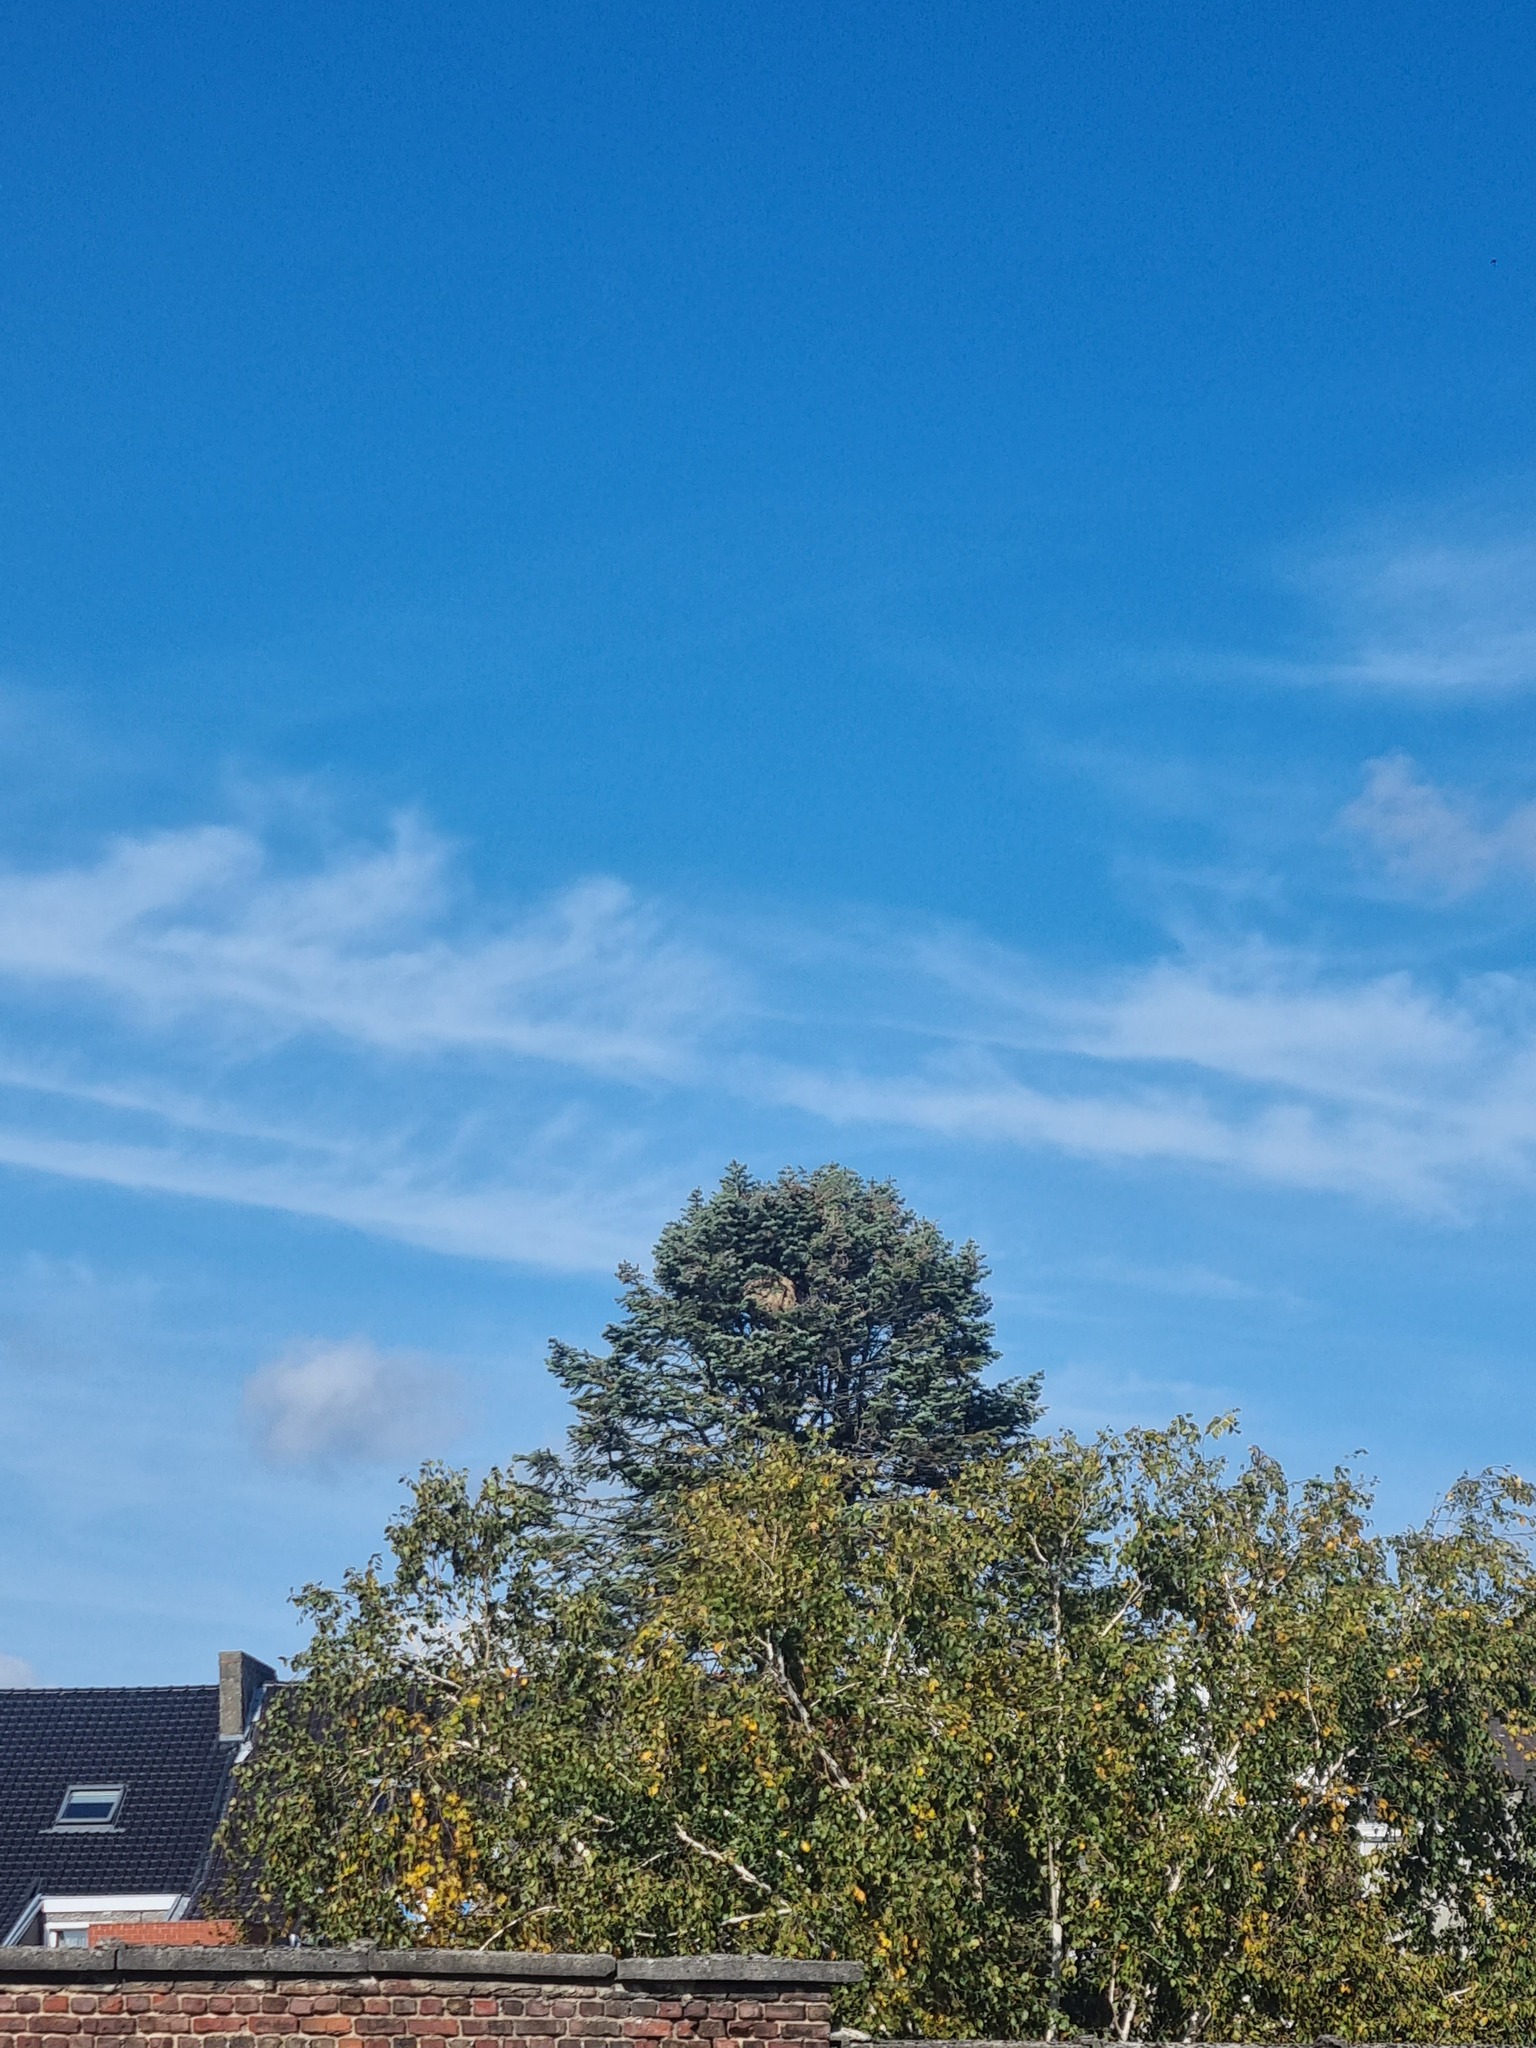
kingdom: Animalia
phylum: Arthropoda
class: Insecta
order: Hymenoptera
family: Vespidae
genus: Vespa
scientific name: Vespa velutina
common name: Asian hornet
